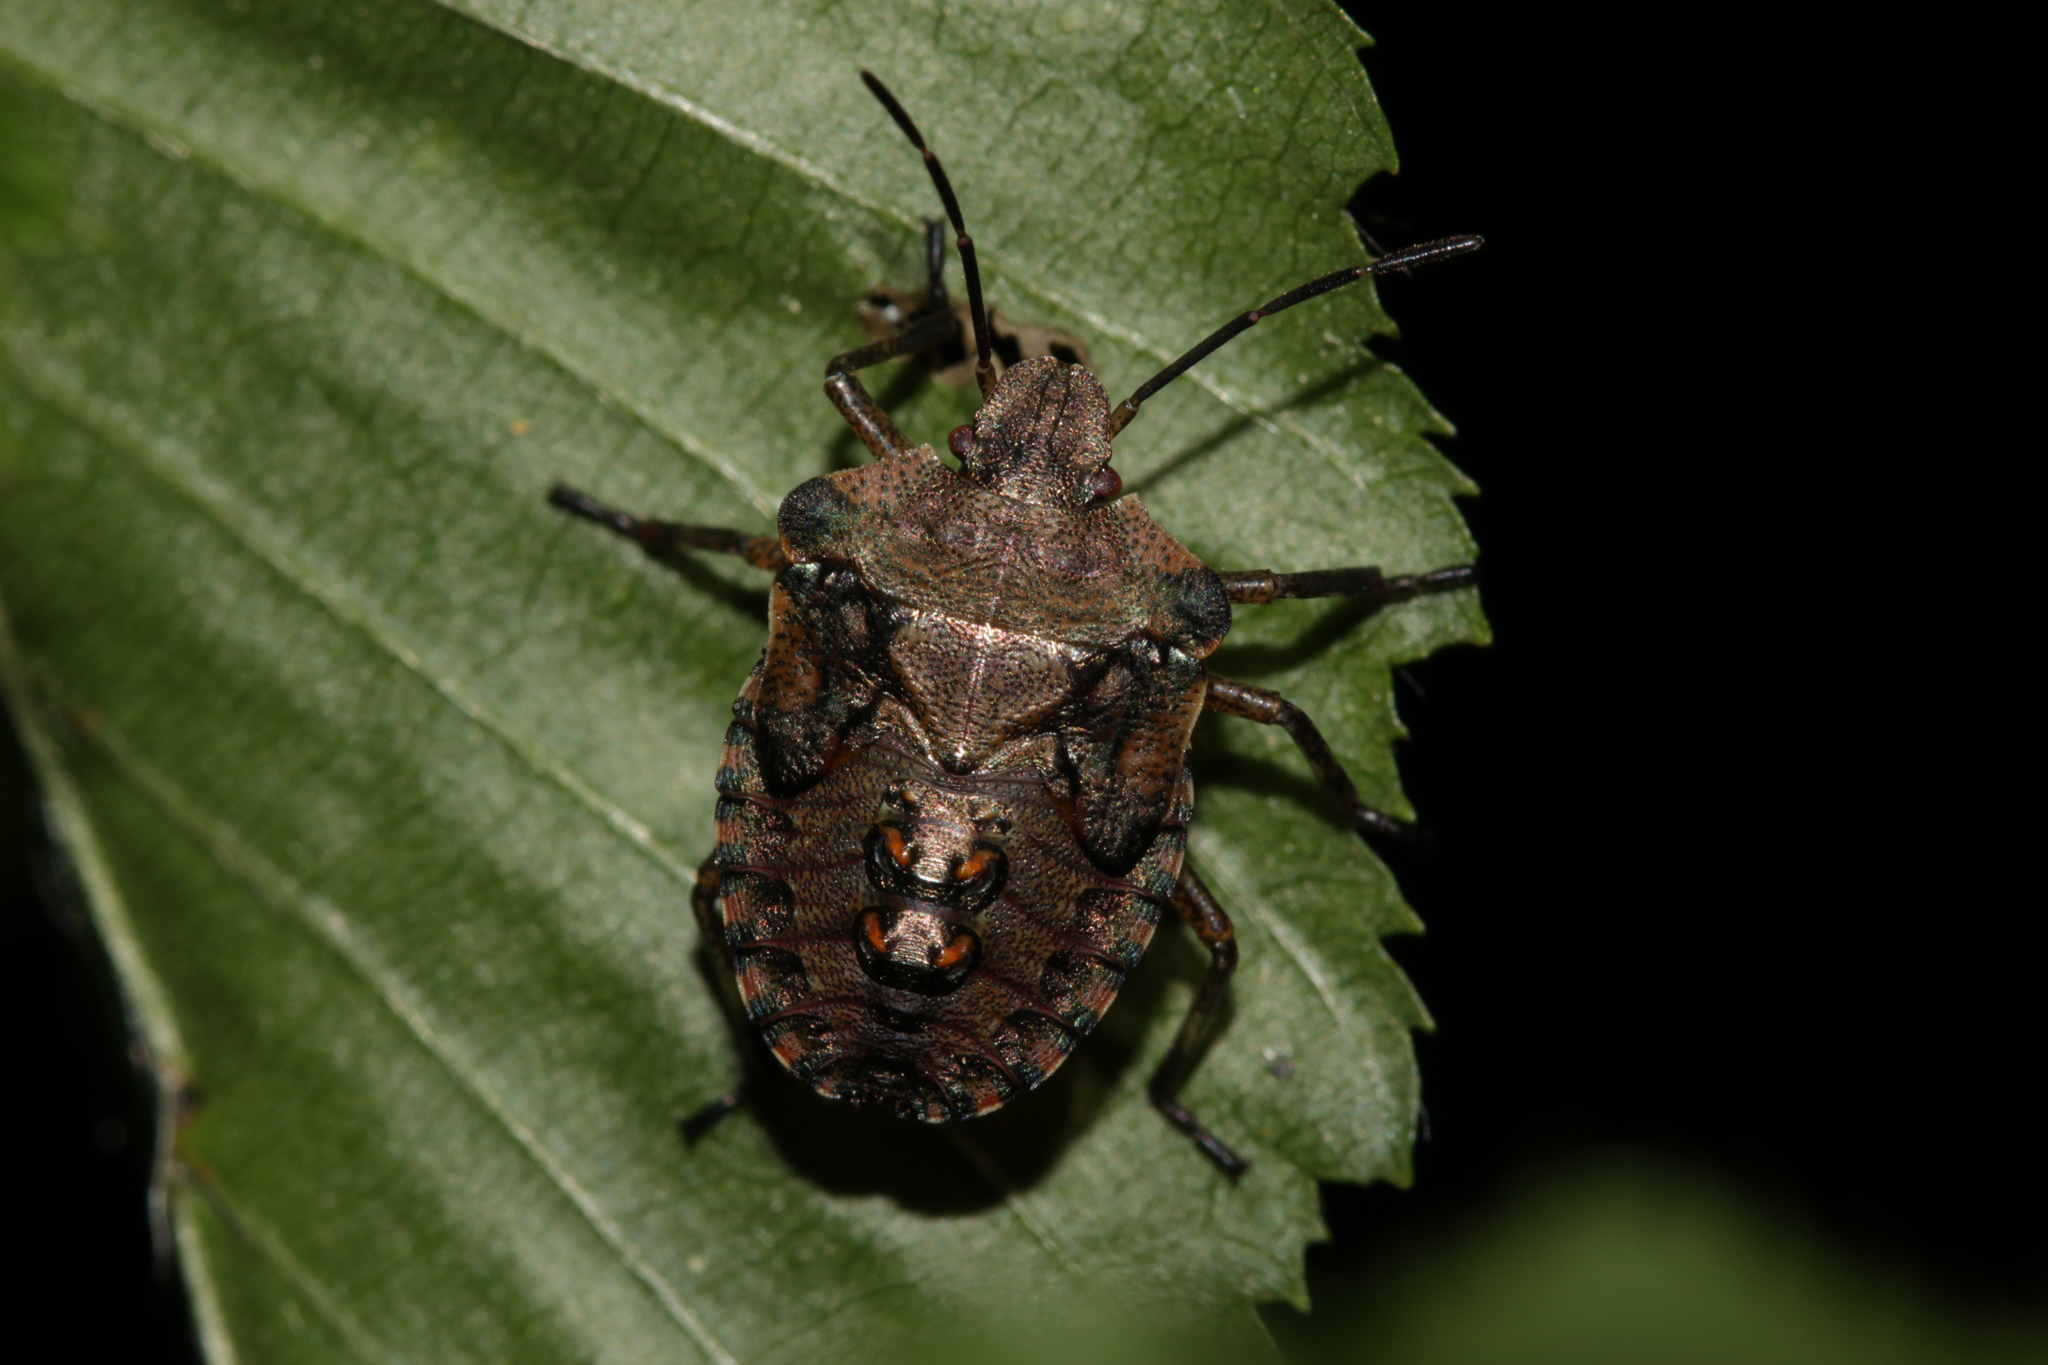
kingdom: Animalia
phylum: Arthropoda
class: Insecta
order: Hemiptera
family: Pentatomidae
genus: Pentatoma
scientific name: Pentatoma rufipes
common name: Forest bug
